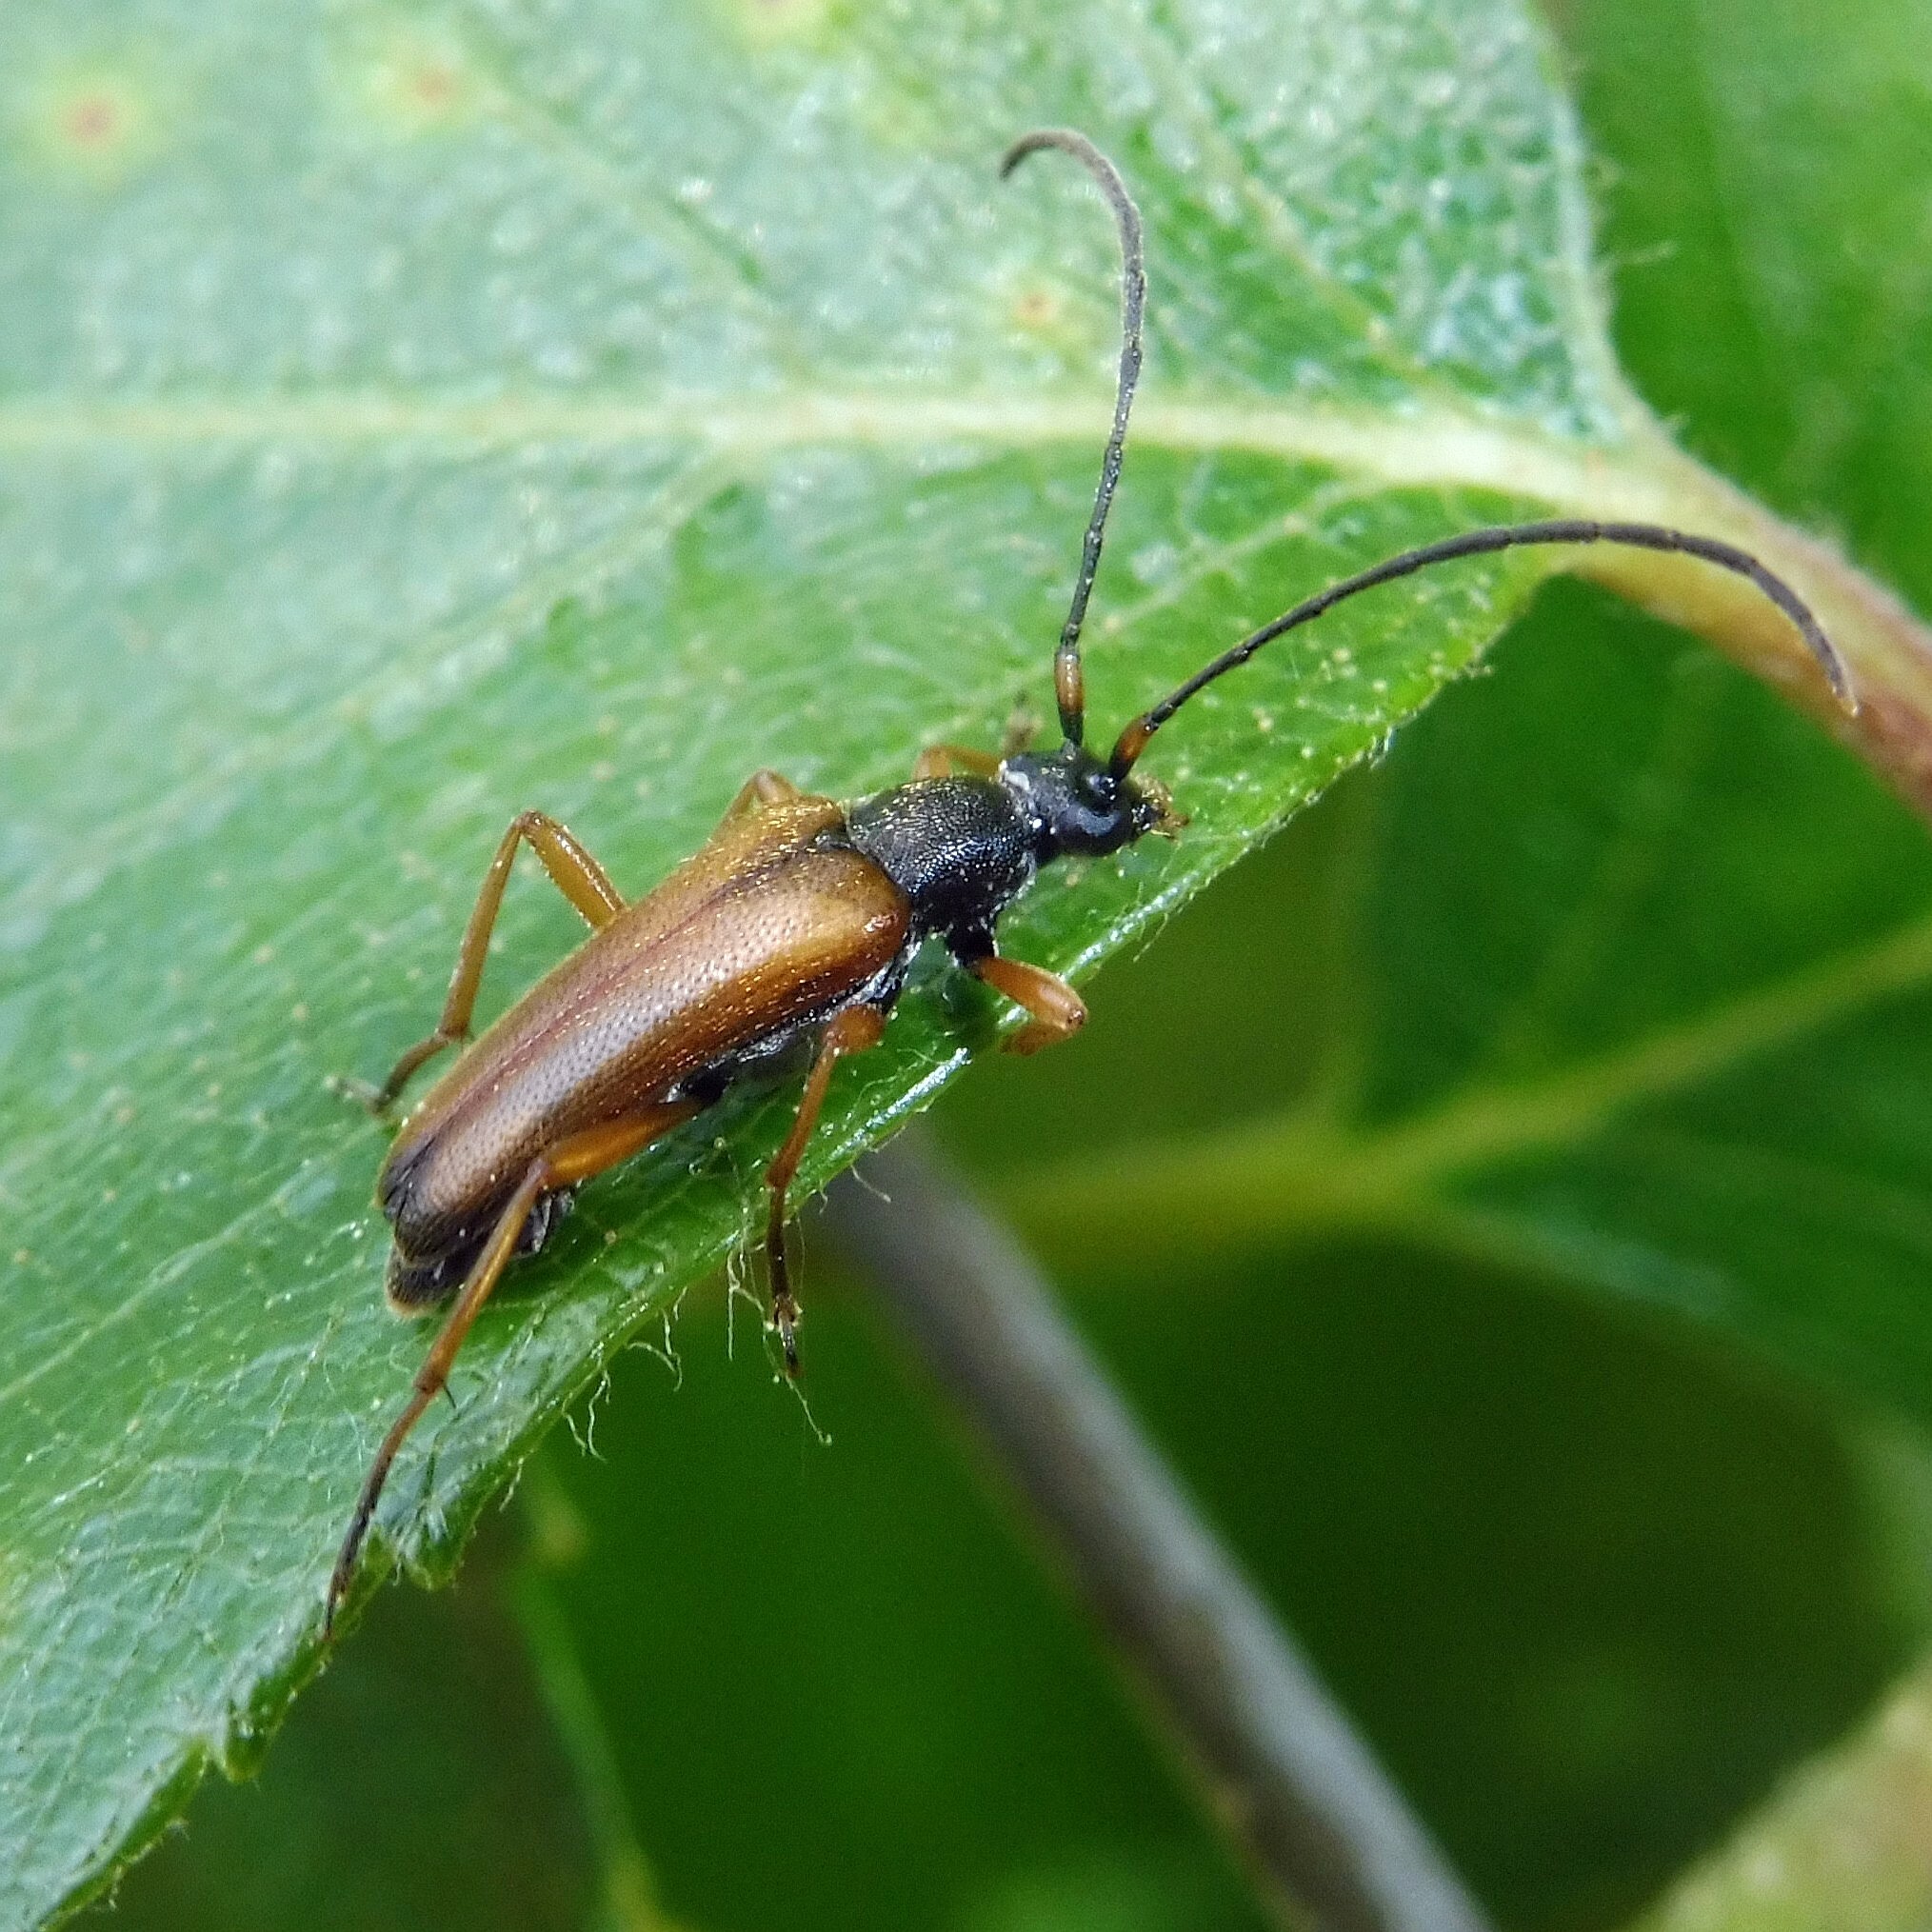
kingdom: Animalia
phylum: Arthropoda
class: Insecta
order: Coleoptera
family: Cerambycidae
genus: Alosterna
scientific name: Alosterna tabacicolor
